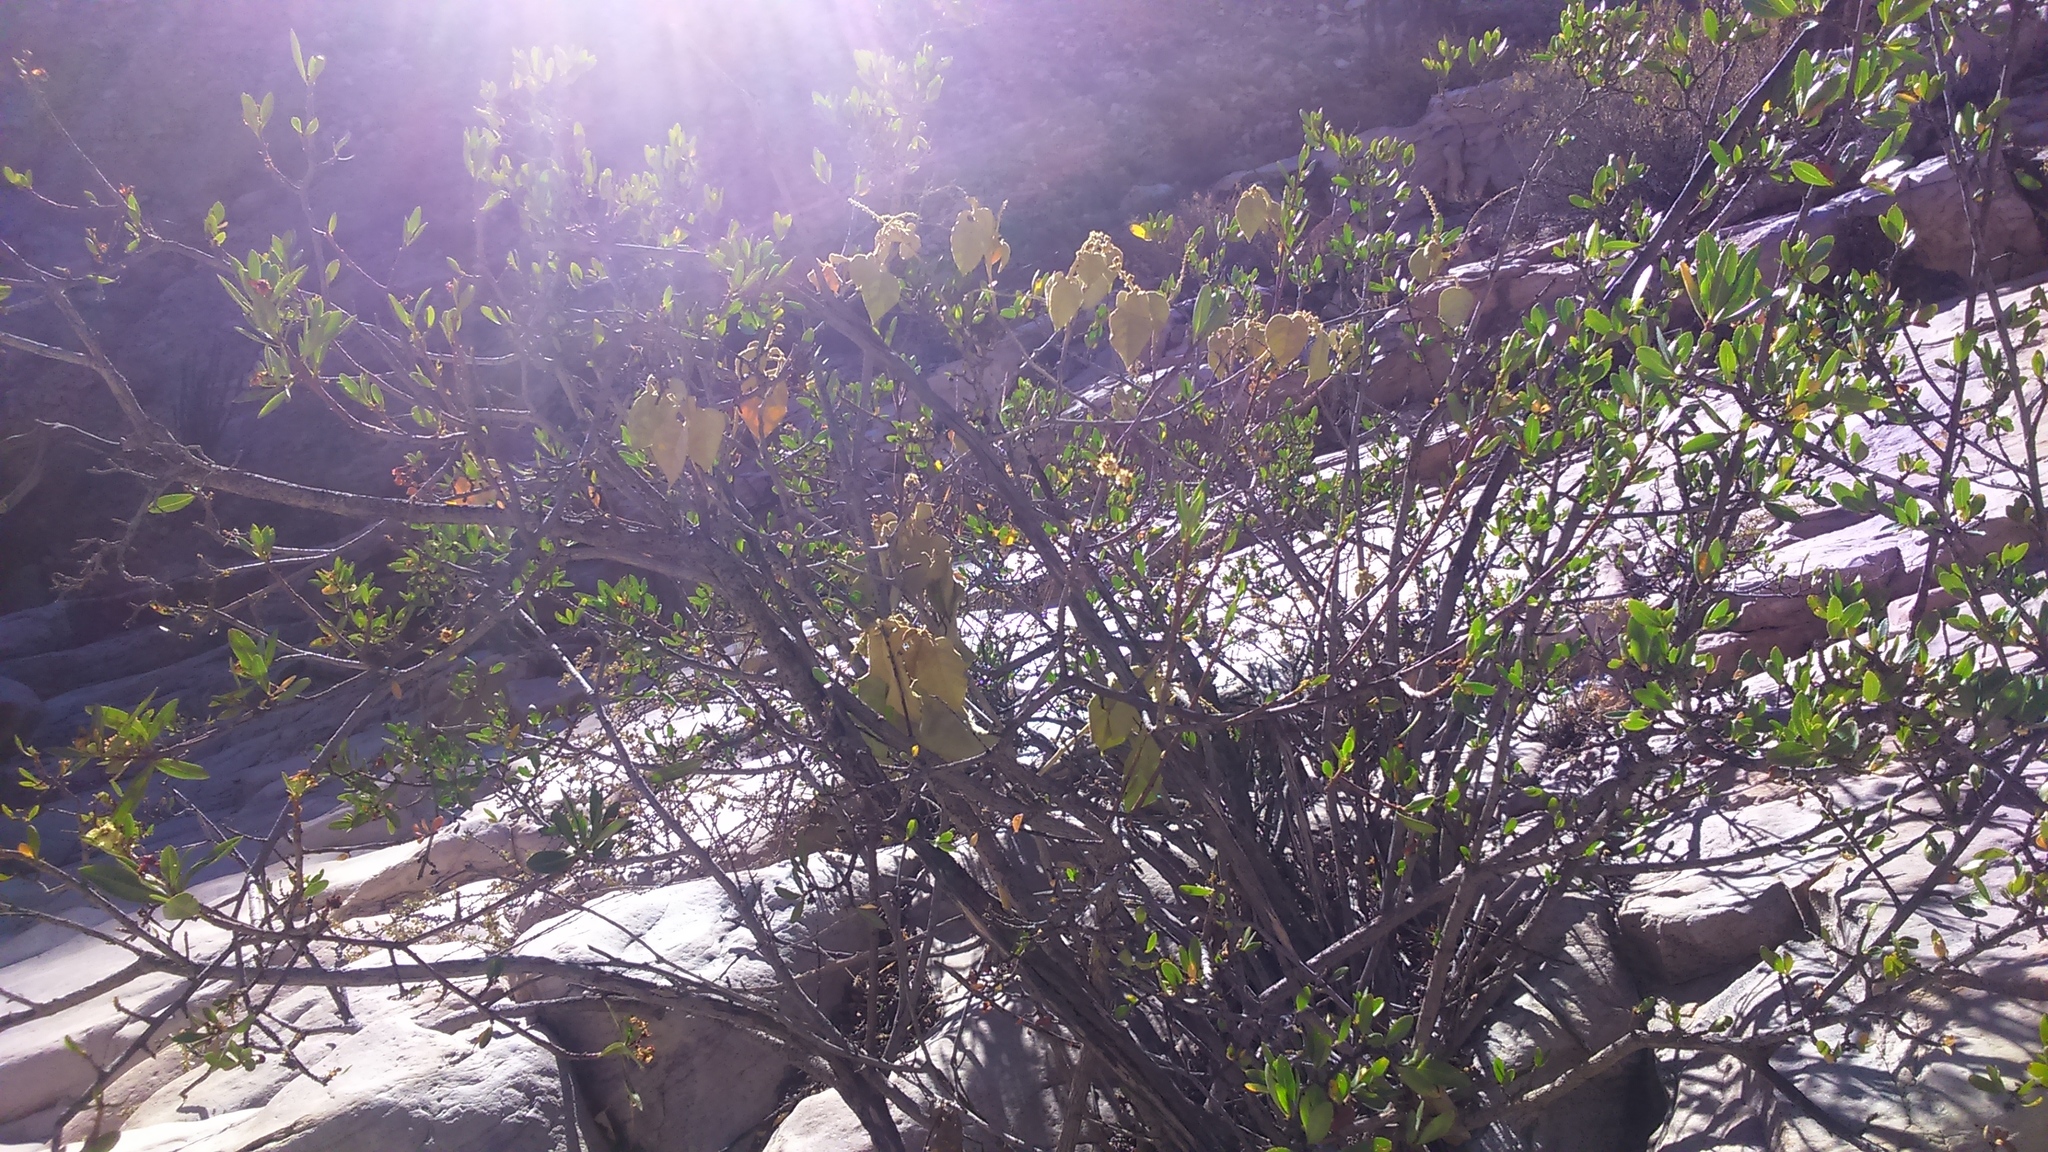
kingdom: Plantae
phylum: Tracheophyta
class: Magnoliopsida
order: Rosales
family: Rosaceae
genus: Kageneckia
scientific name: Kageneckia lanceolata
